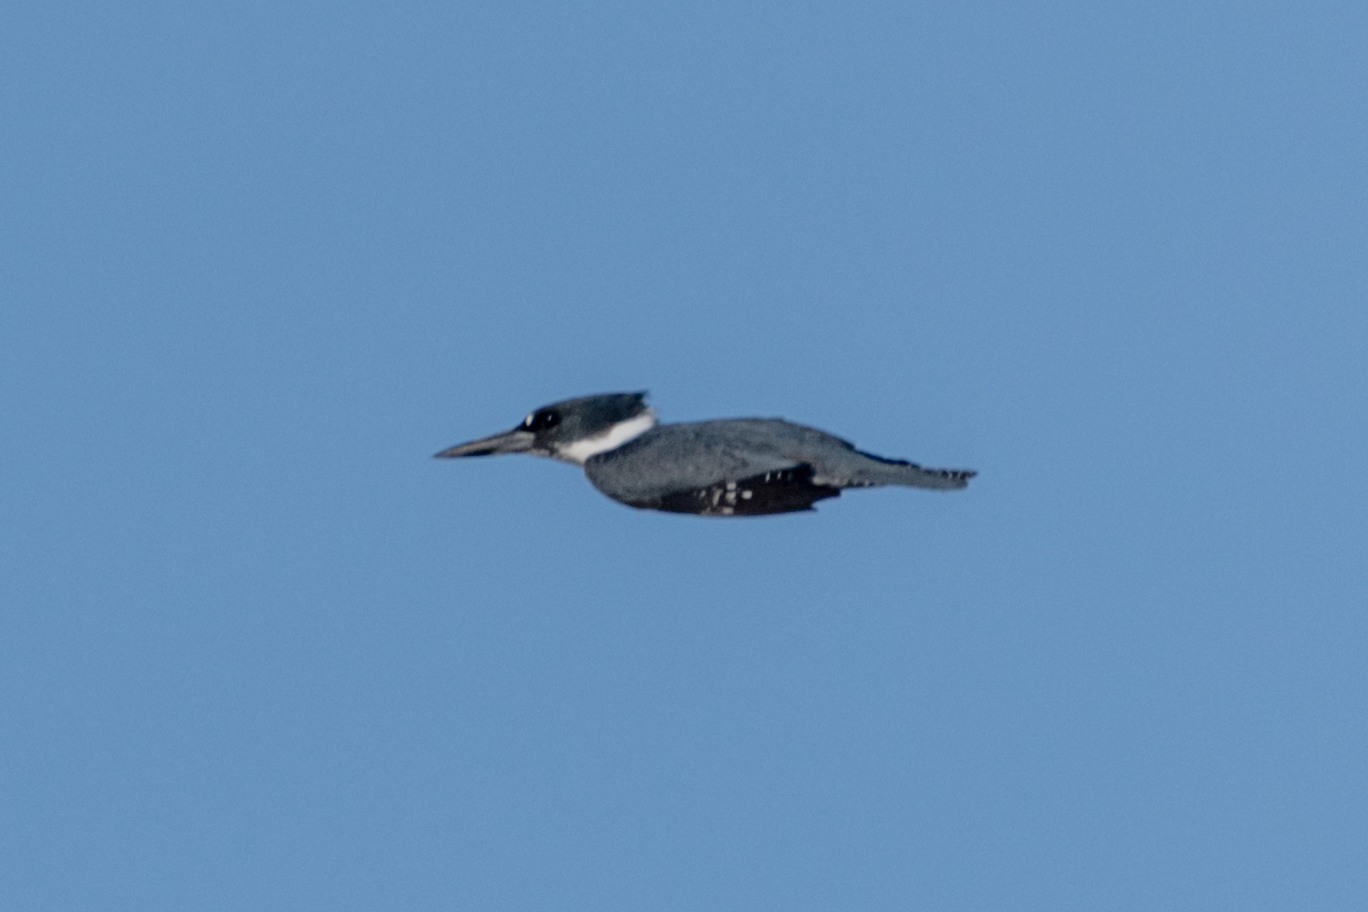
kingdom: Animalia
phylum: Chordata
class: Aves
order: Coraciiformes
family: Alcedinidae
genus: Megaceryle
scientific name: Megaceryle alcyon
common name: Belted kingfisher
